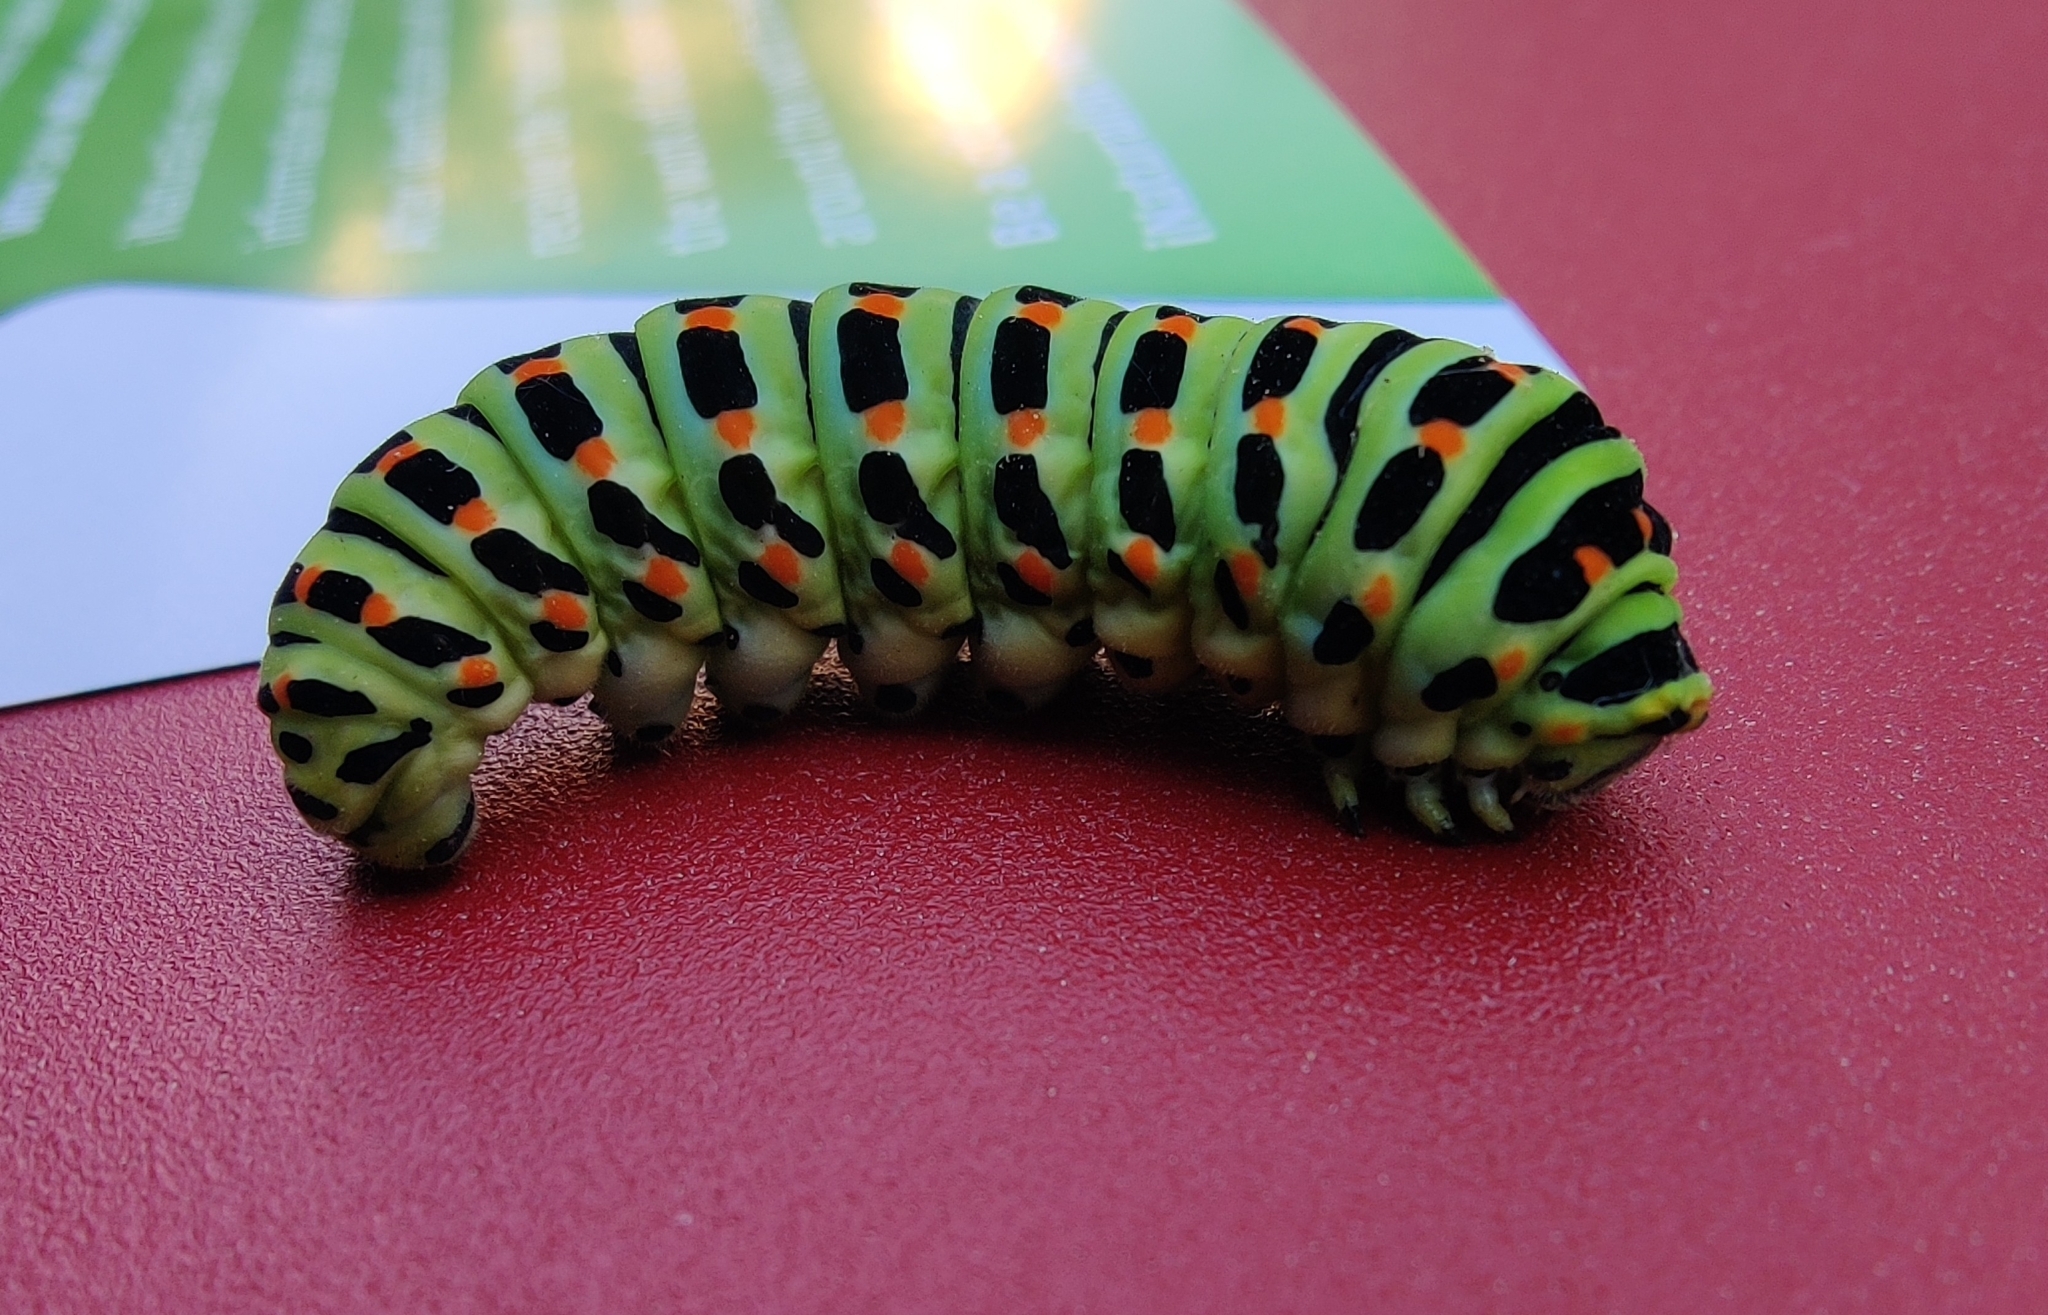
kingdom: Animalia
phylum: Arthropoda
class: Insecta
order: Lepidoptera
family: Papilionidae
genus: Papilio
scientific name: Papilio machaon
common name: Swallowtail
